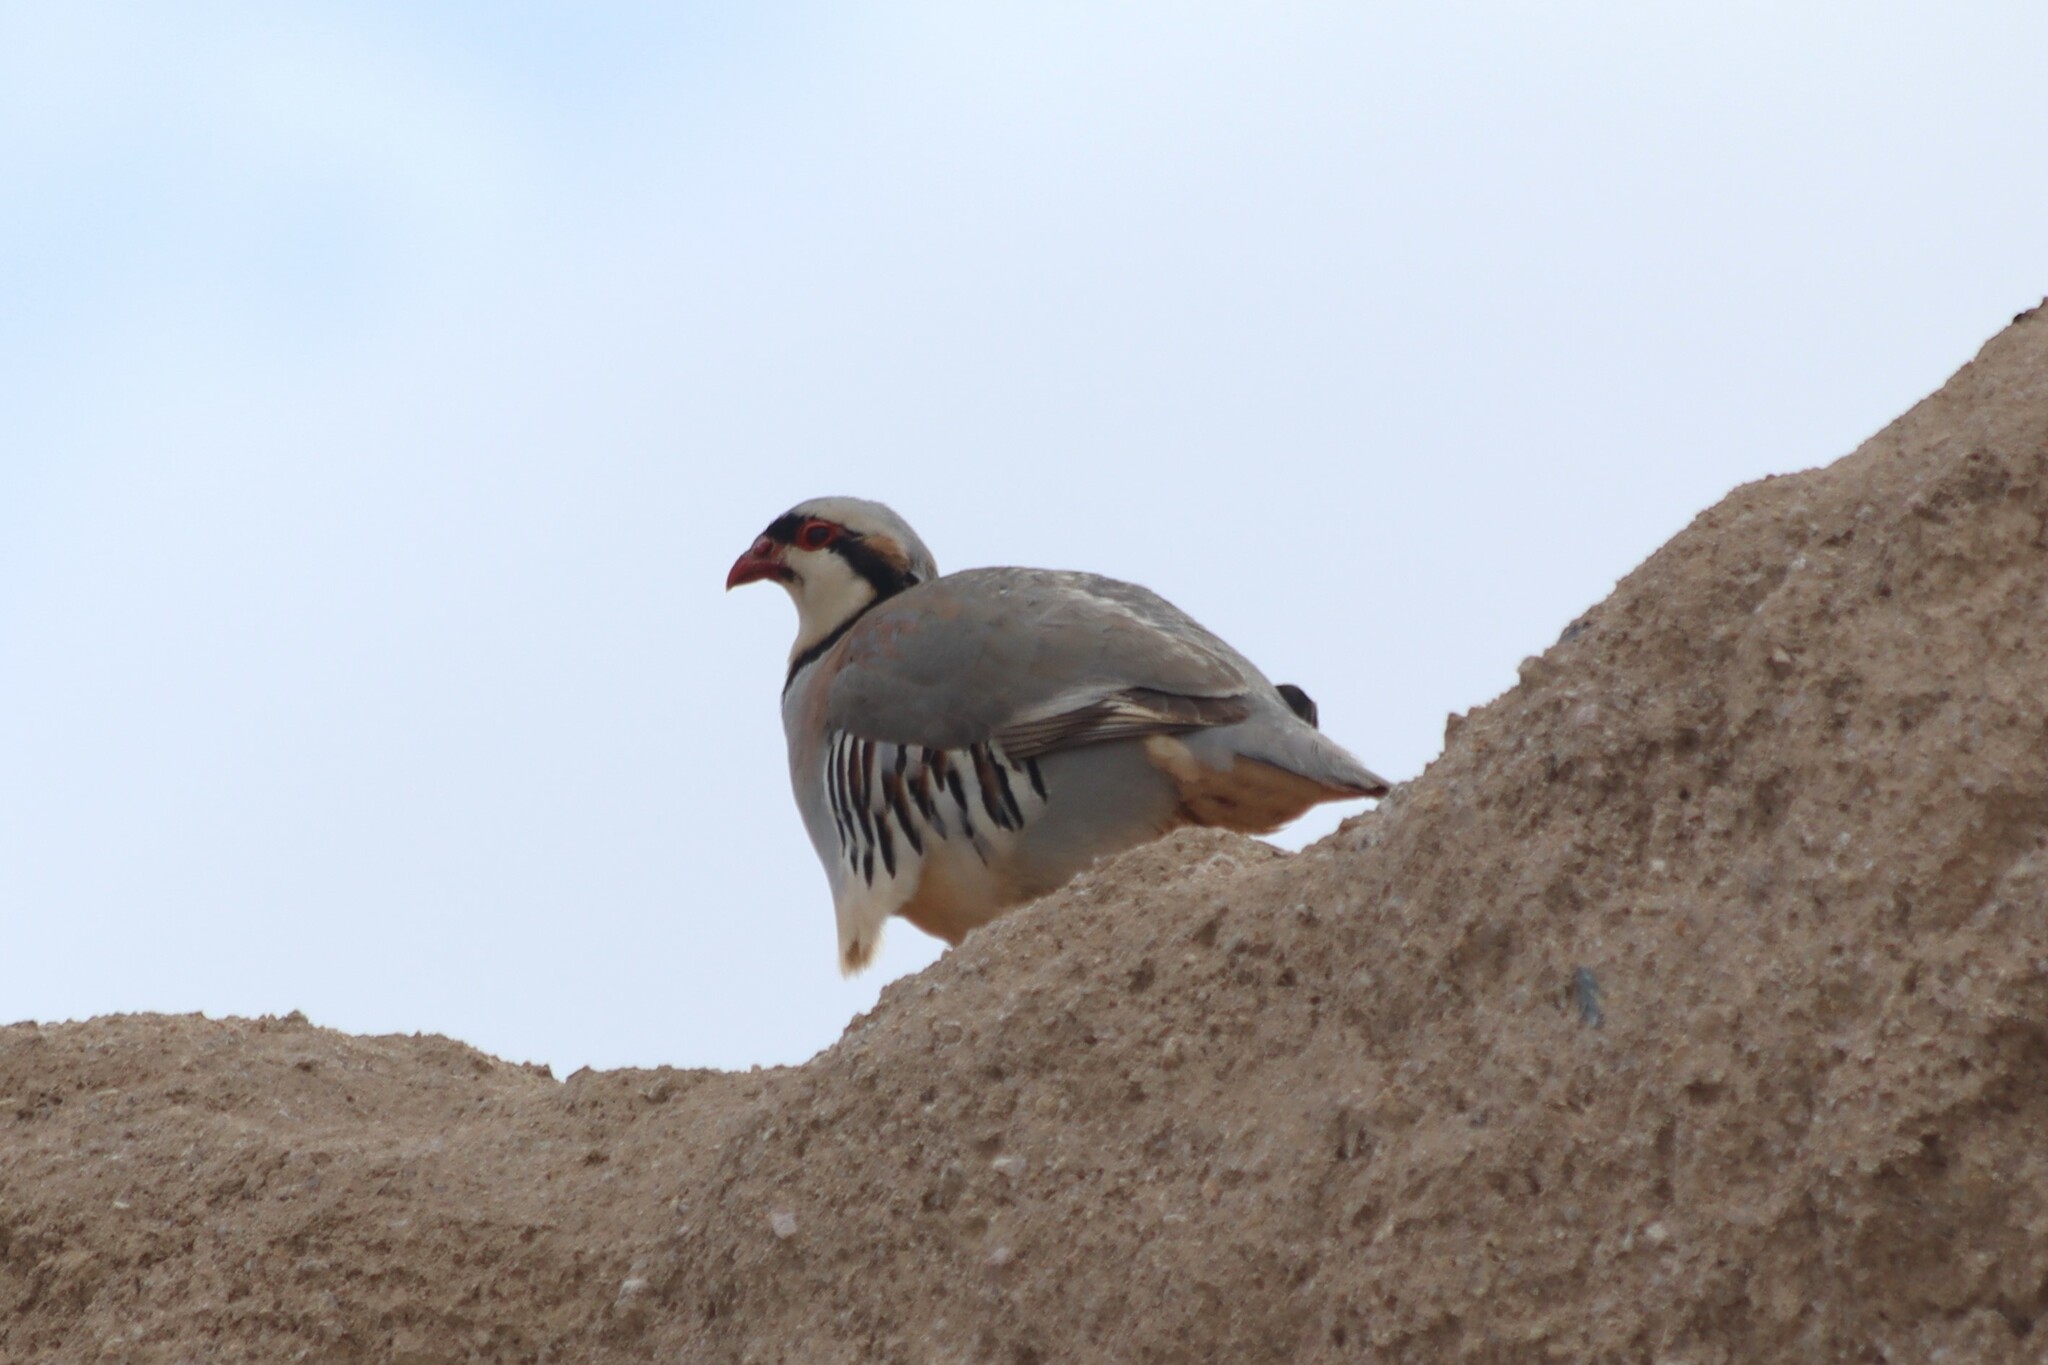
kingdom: Animalia
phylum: Chordata
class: Aves
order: Galliformes
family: Phasianidae
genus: Alectoris
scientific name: Alectoris chukar
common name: Chukar
